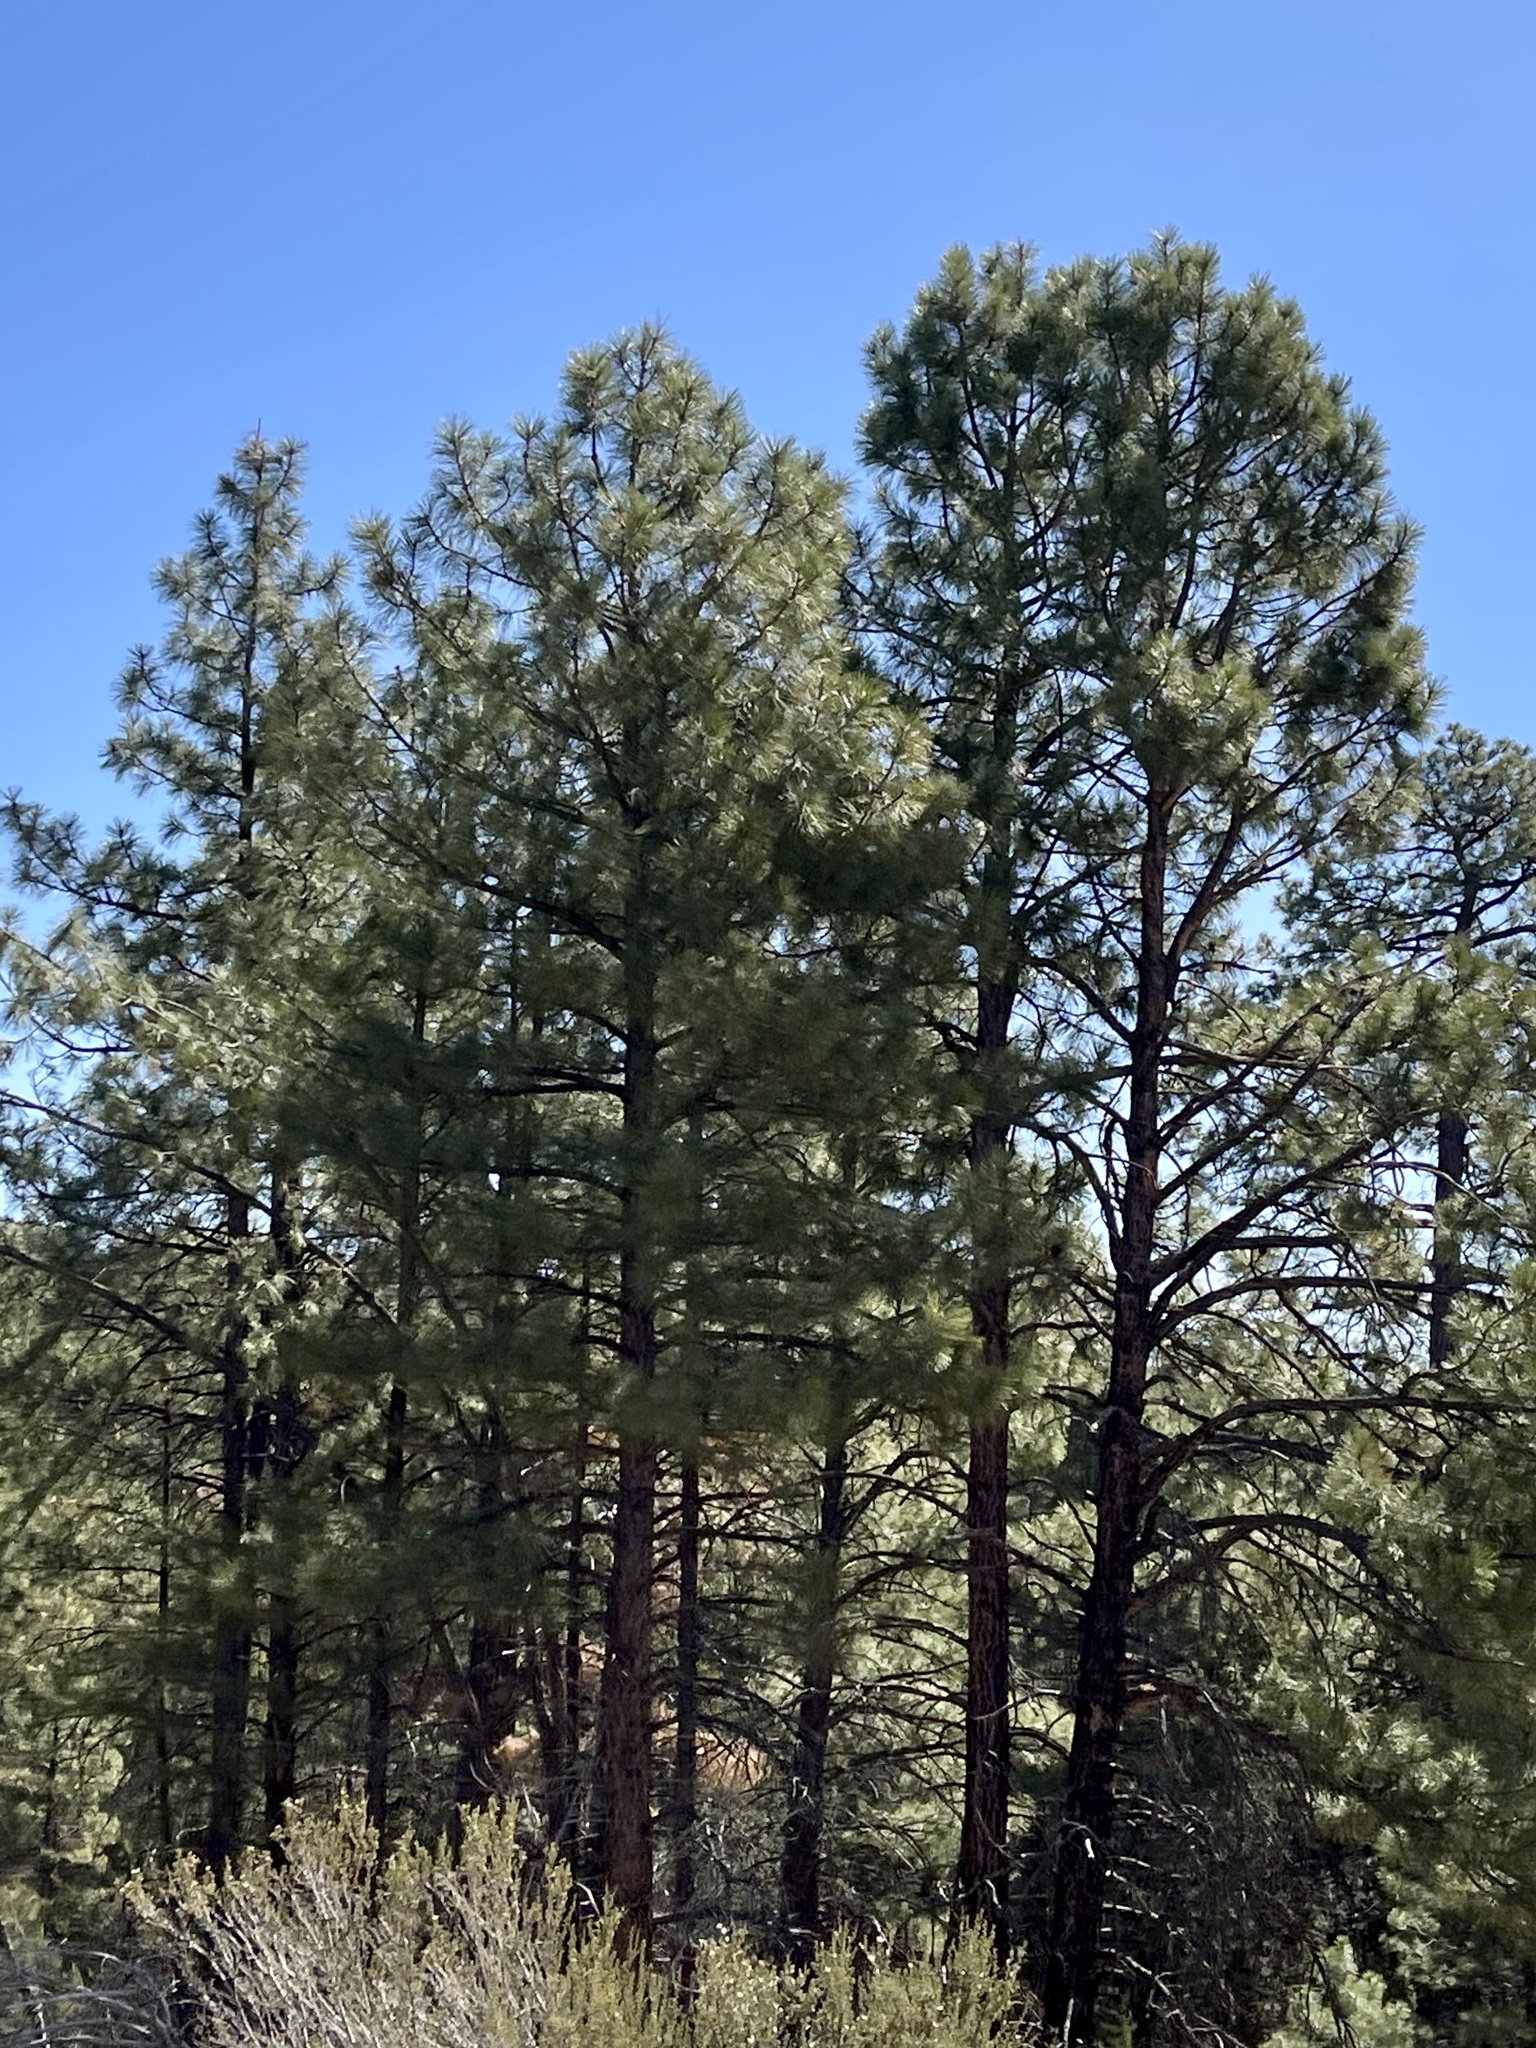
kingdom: Plantae
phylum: Tracheophyta
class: Pinopsida
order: Pinales
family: Pinaceae
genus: Pinus
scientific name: Pinus ponderosa
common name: Western yellow-pine
